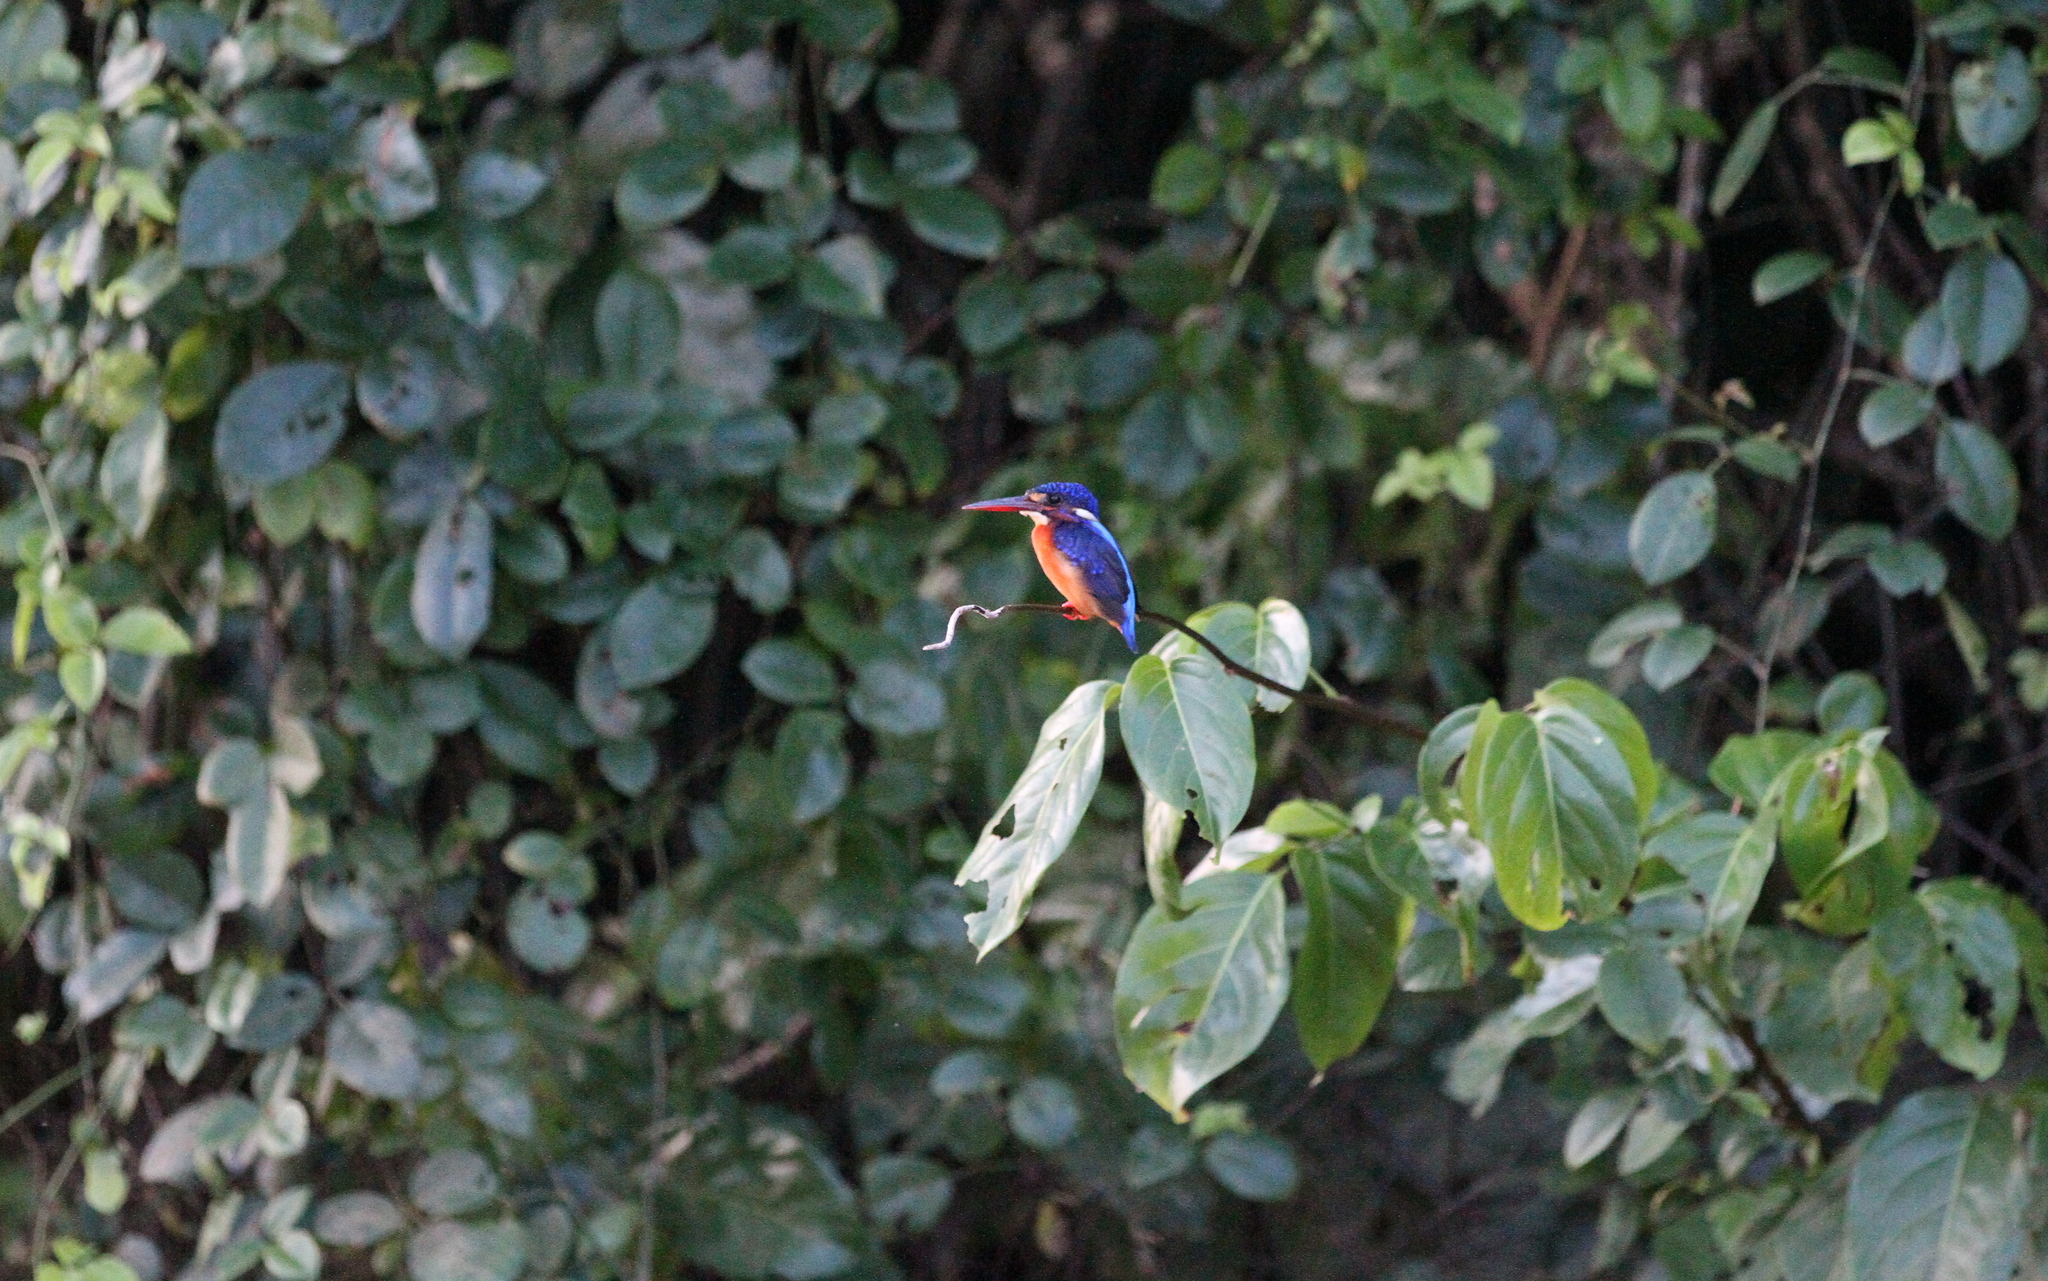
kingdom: Animalia
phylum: Chordata
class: Aves
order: Coraciiformes
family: Alcedinidae
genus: Alcedo
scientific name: Alcedo meninting
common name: Blue-eared kingfisher
